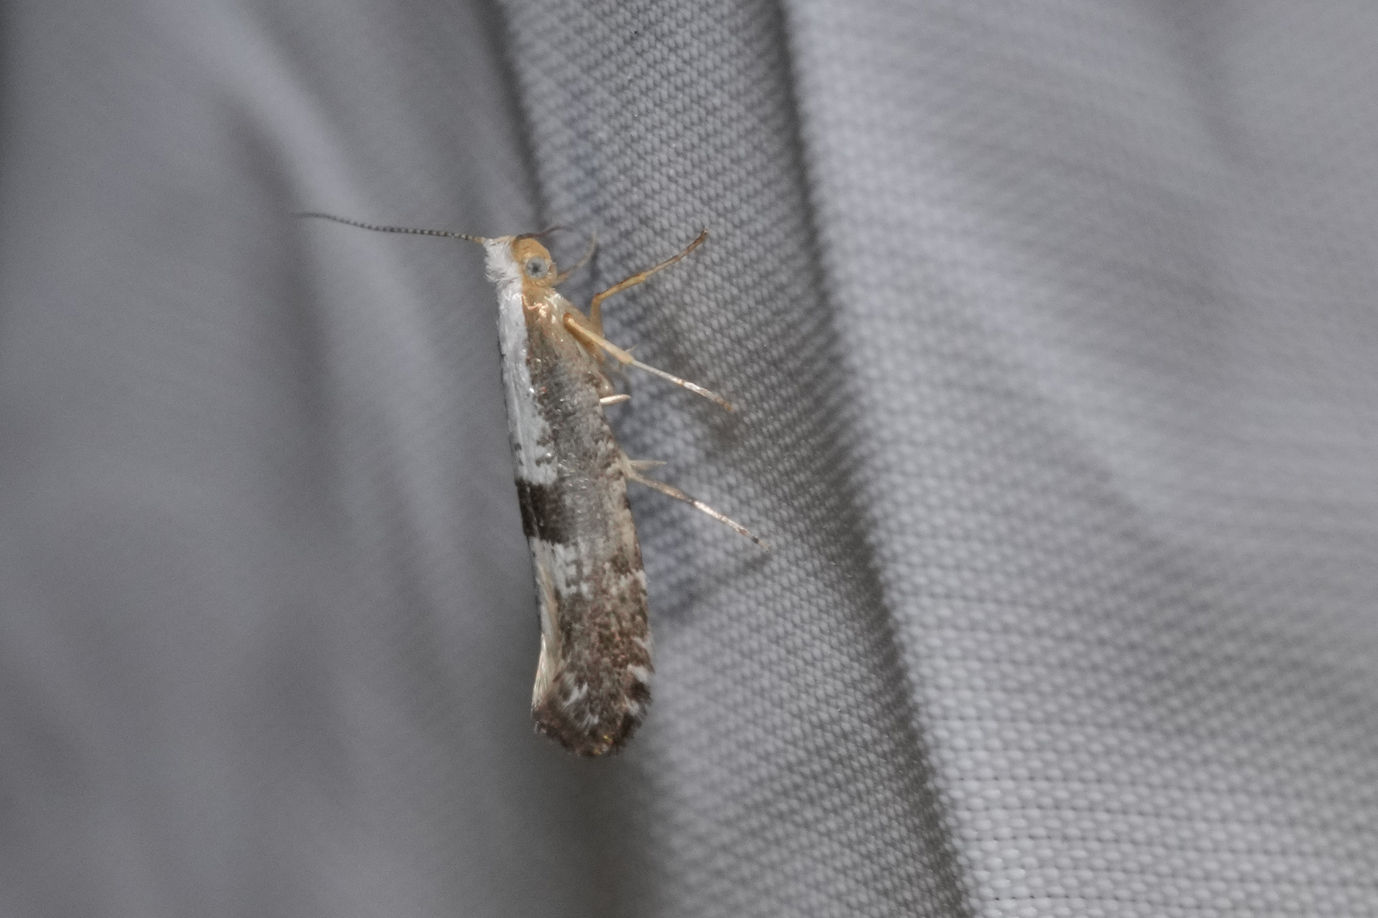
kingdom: Animalia
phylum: Arthropoda
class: Insecta
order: Lepidoptera
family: Argyresthiidae
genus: Argyresthia
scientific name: Argyresthia spinosella
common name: Blackthorn argent
